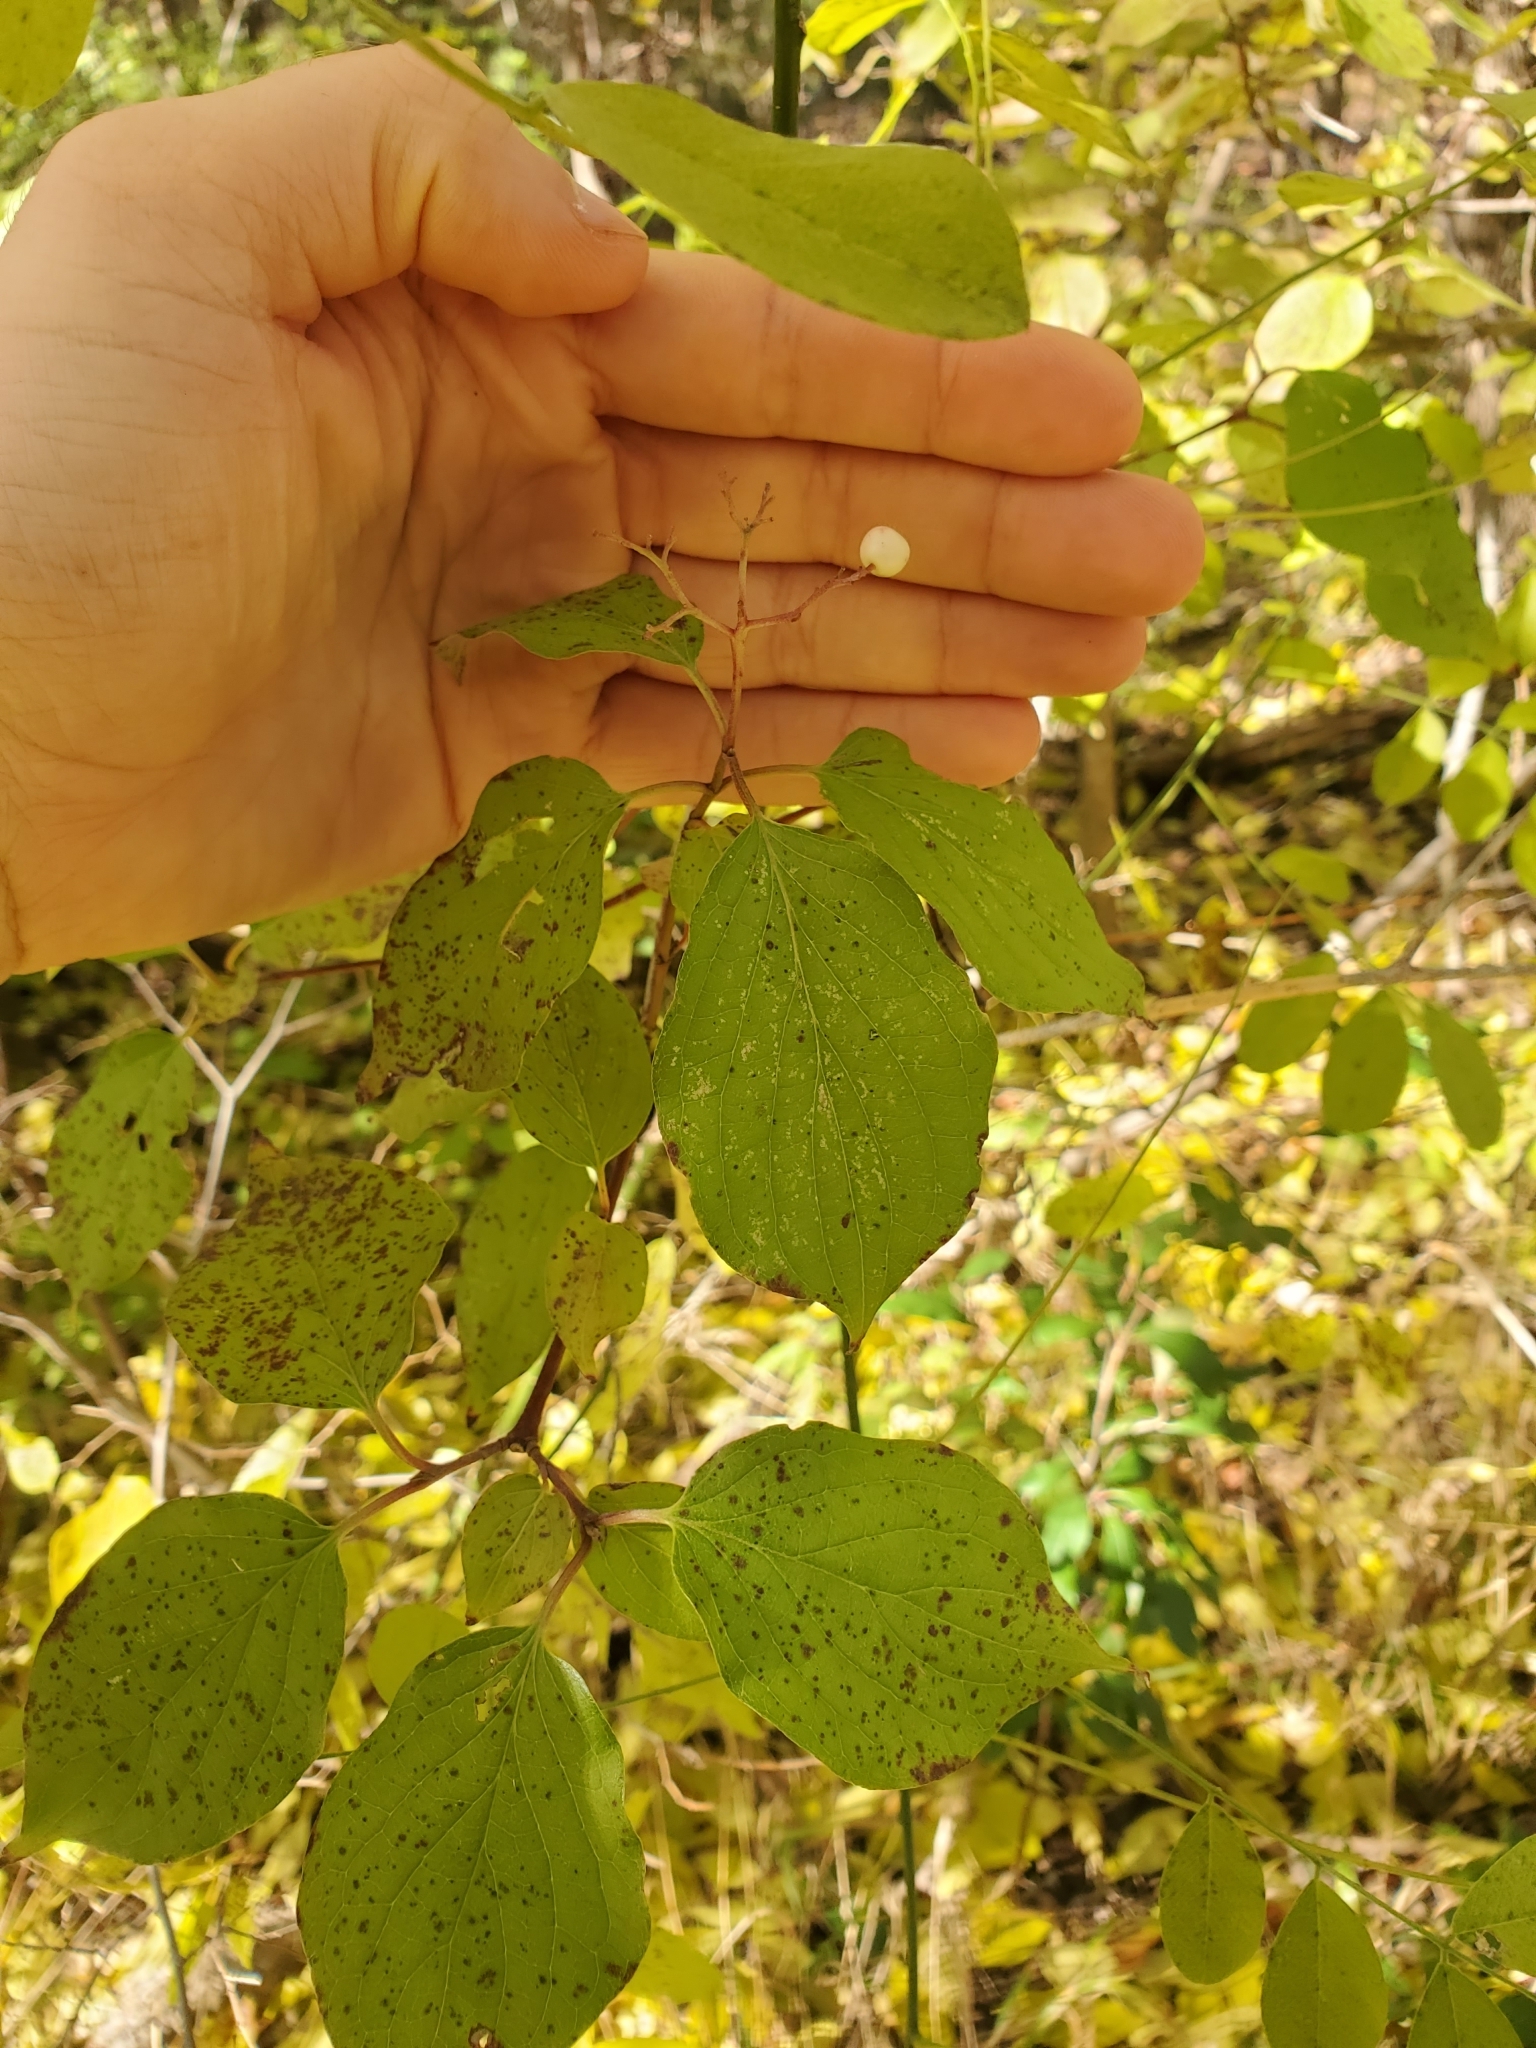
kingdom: Plantae
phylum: Tracheophyta
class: Magnoliopsida
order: Cornales
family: Cornaceae
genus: Cornus
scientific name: Cornus drummondii
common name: Rough-leaf dogwood
